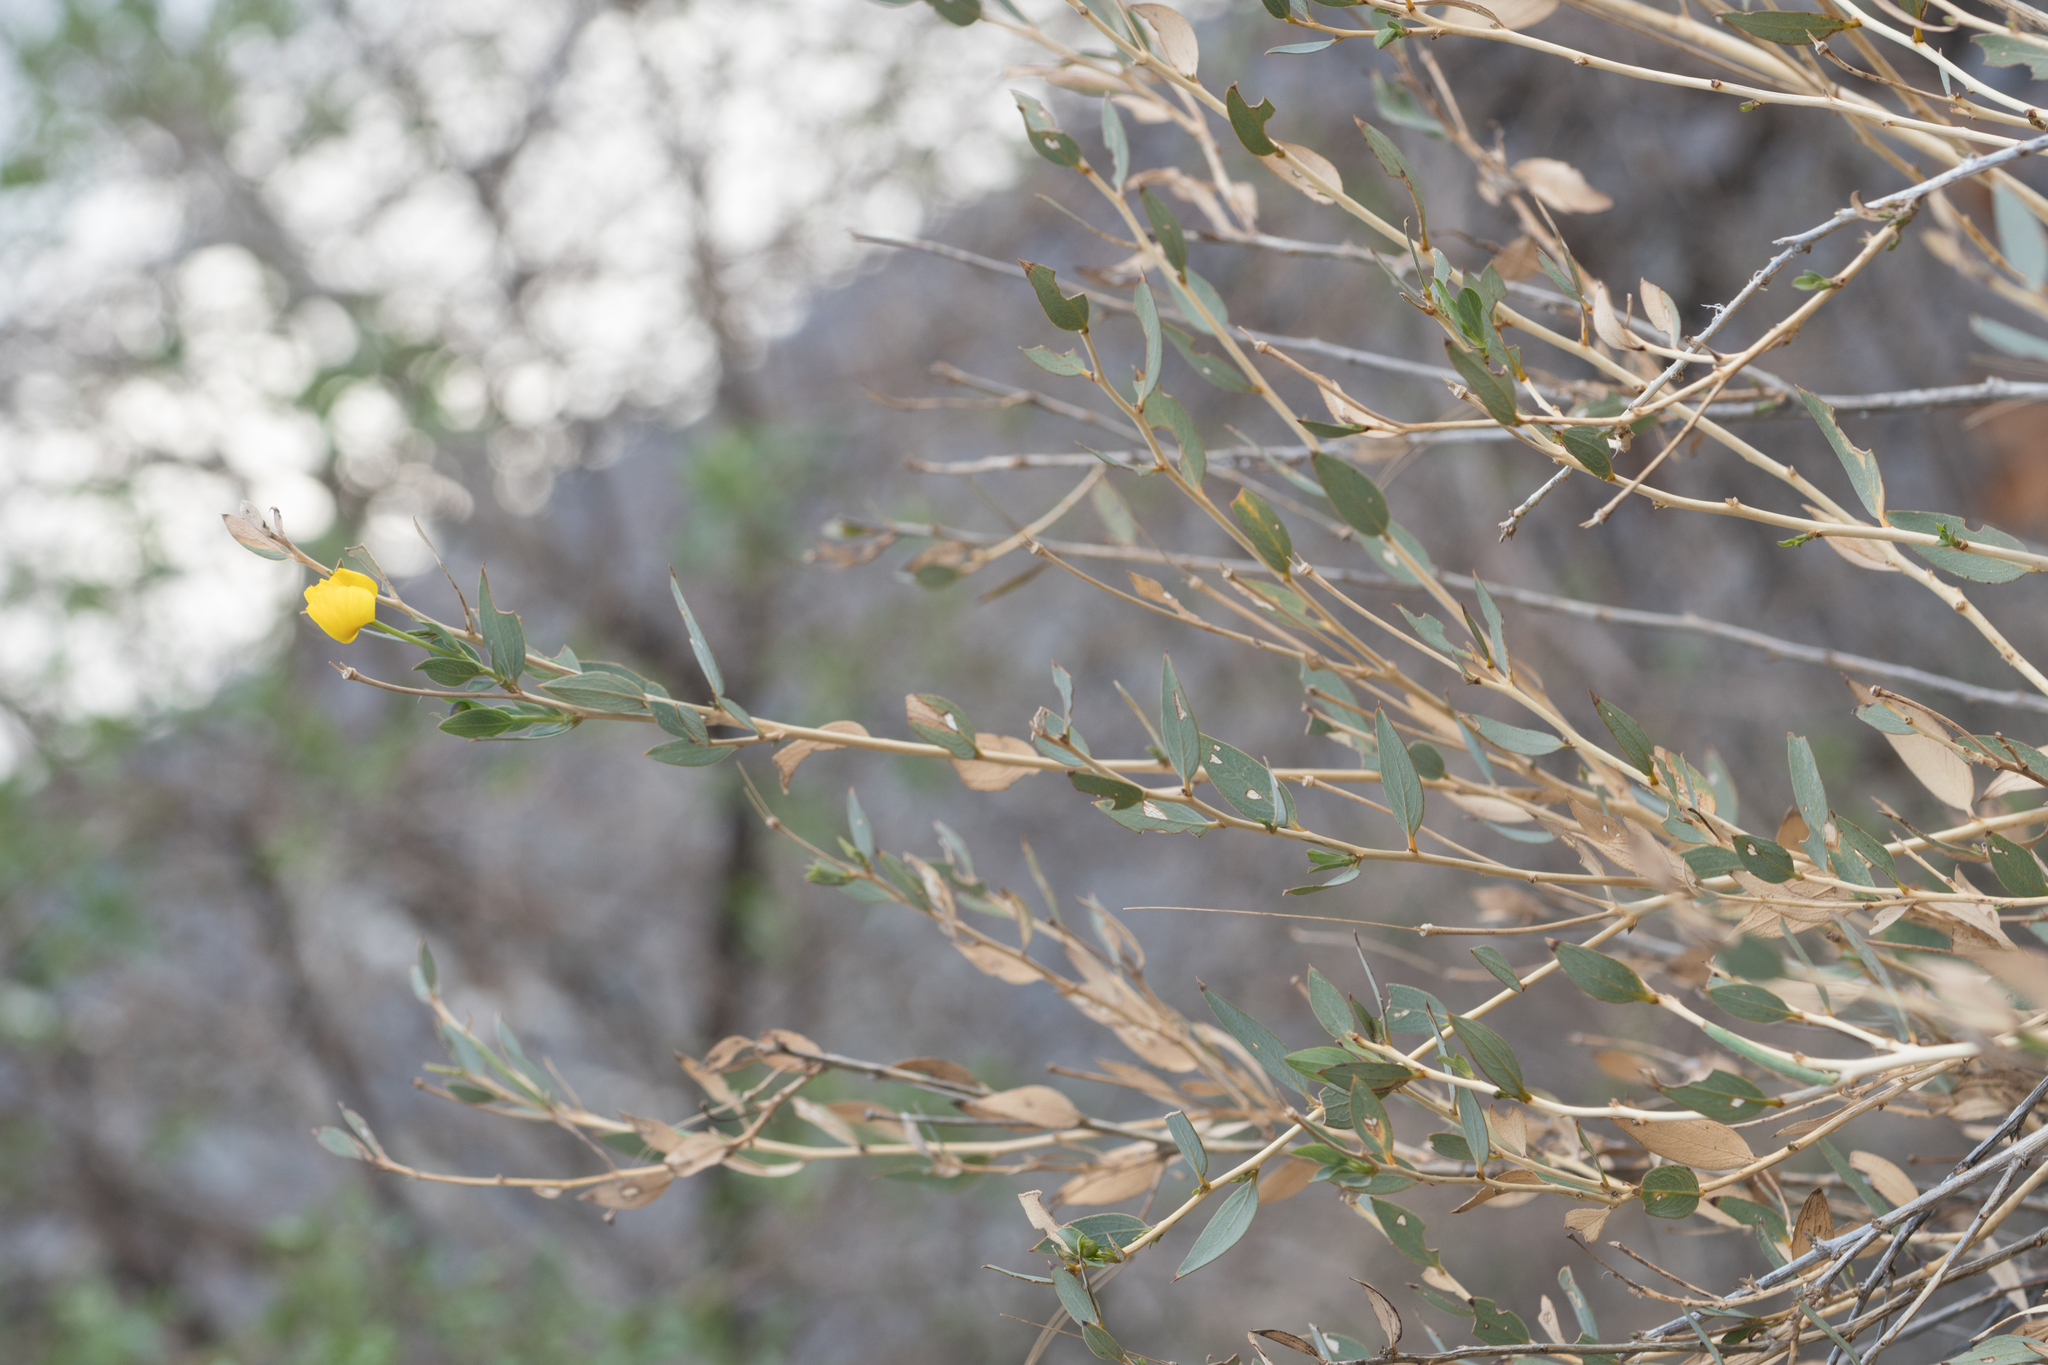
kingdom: Plantae
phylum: Tracheophyta
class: Magnoliopsida
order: Ranunculales
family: Papaveraceae
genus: Dendromecon
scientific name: Dendromecon rigida
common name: Tree poppy
